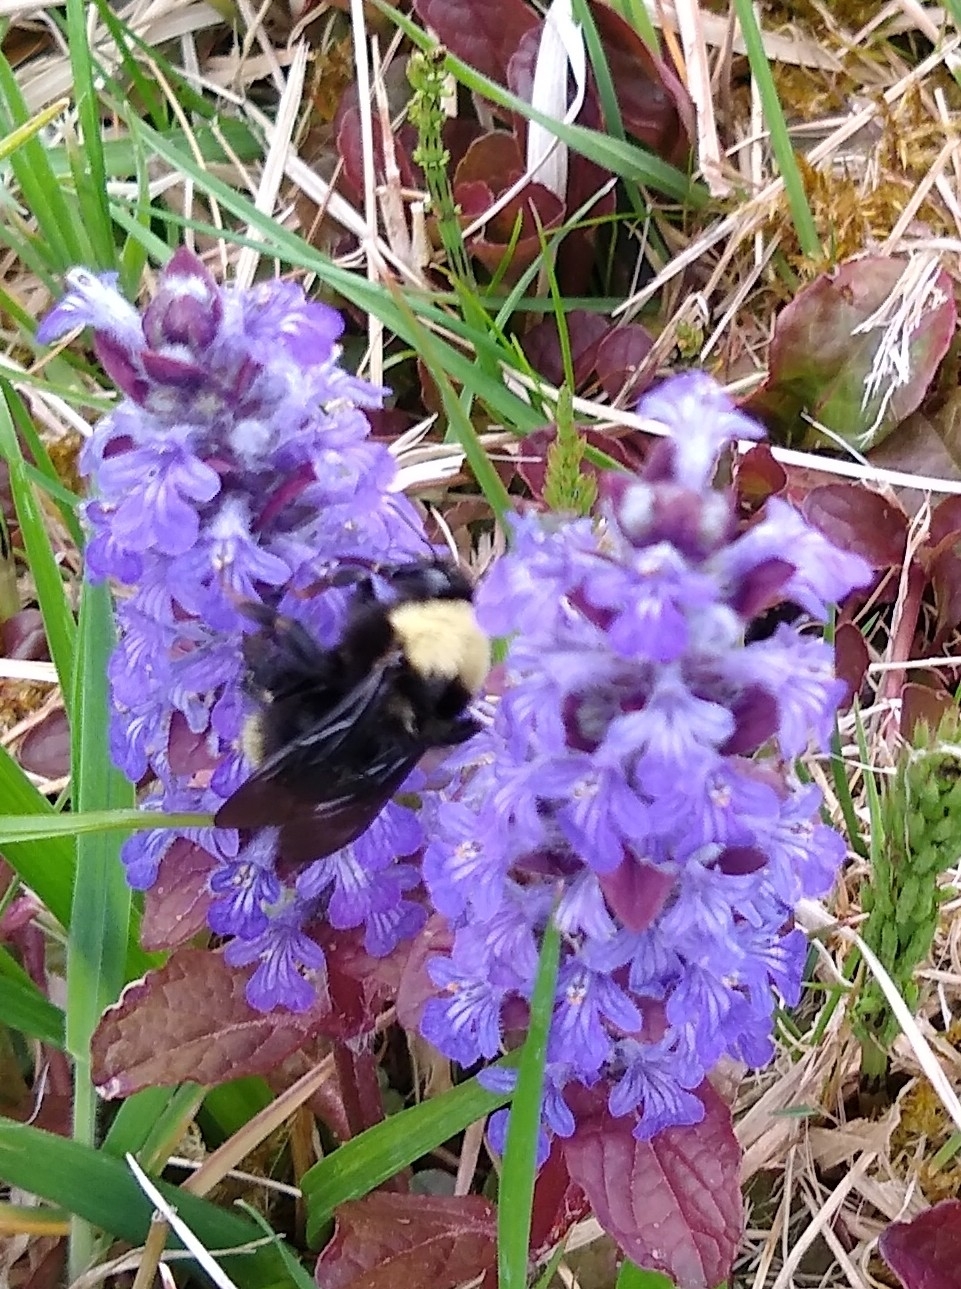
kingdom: Animalia
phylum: Arthropoda
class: Insecta
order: Hymenoptera
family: Apidae
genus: Bombus
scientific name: Bombus californicus
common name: California bumble bee
